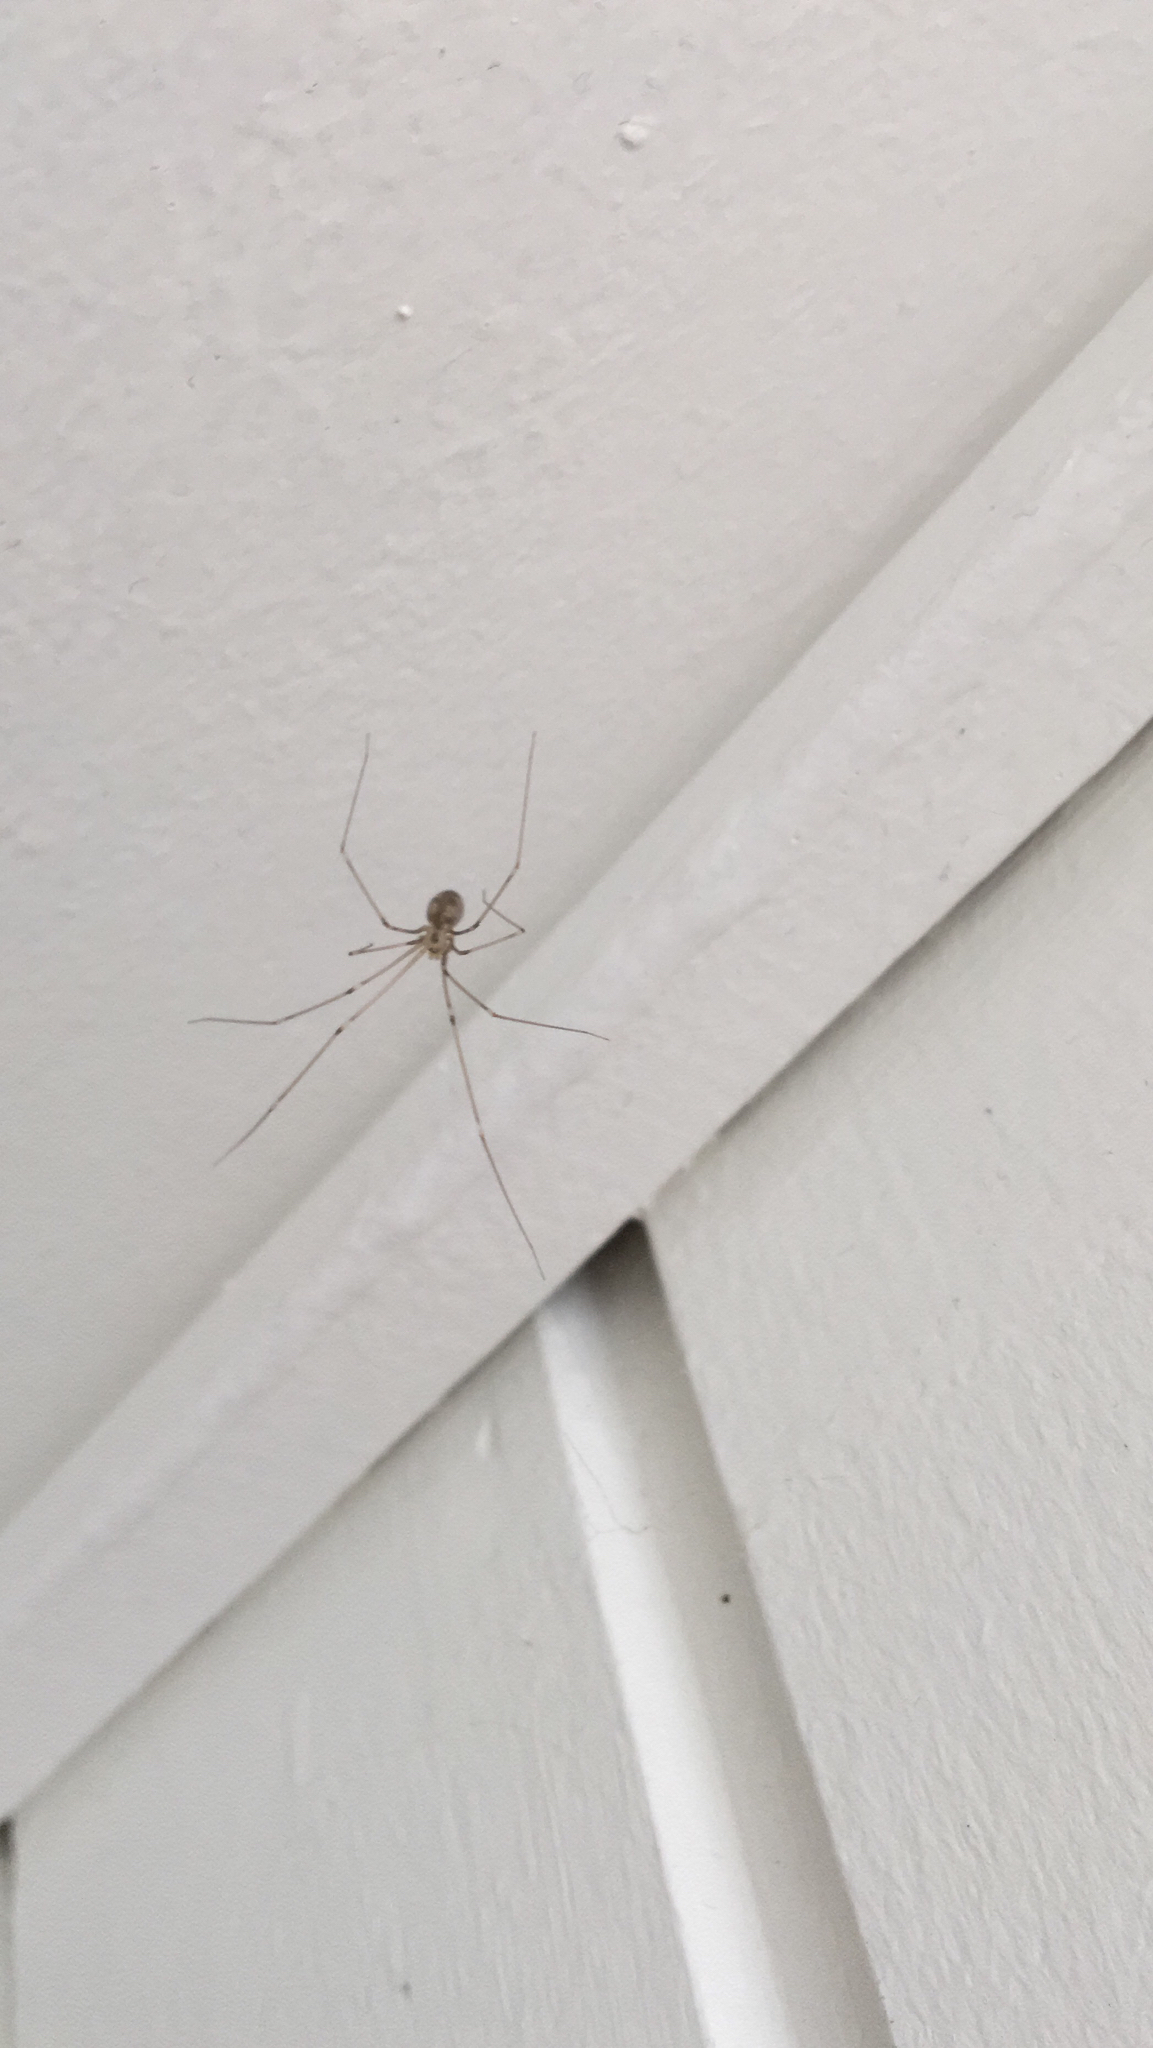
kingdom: Animalia
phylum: Arthropoda
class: Arachnida
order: Araneae
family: Pholcidae
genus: Pholcus
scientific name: Pholcus phalangioides
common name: Longbodied cellar spider
